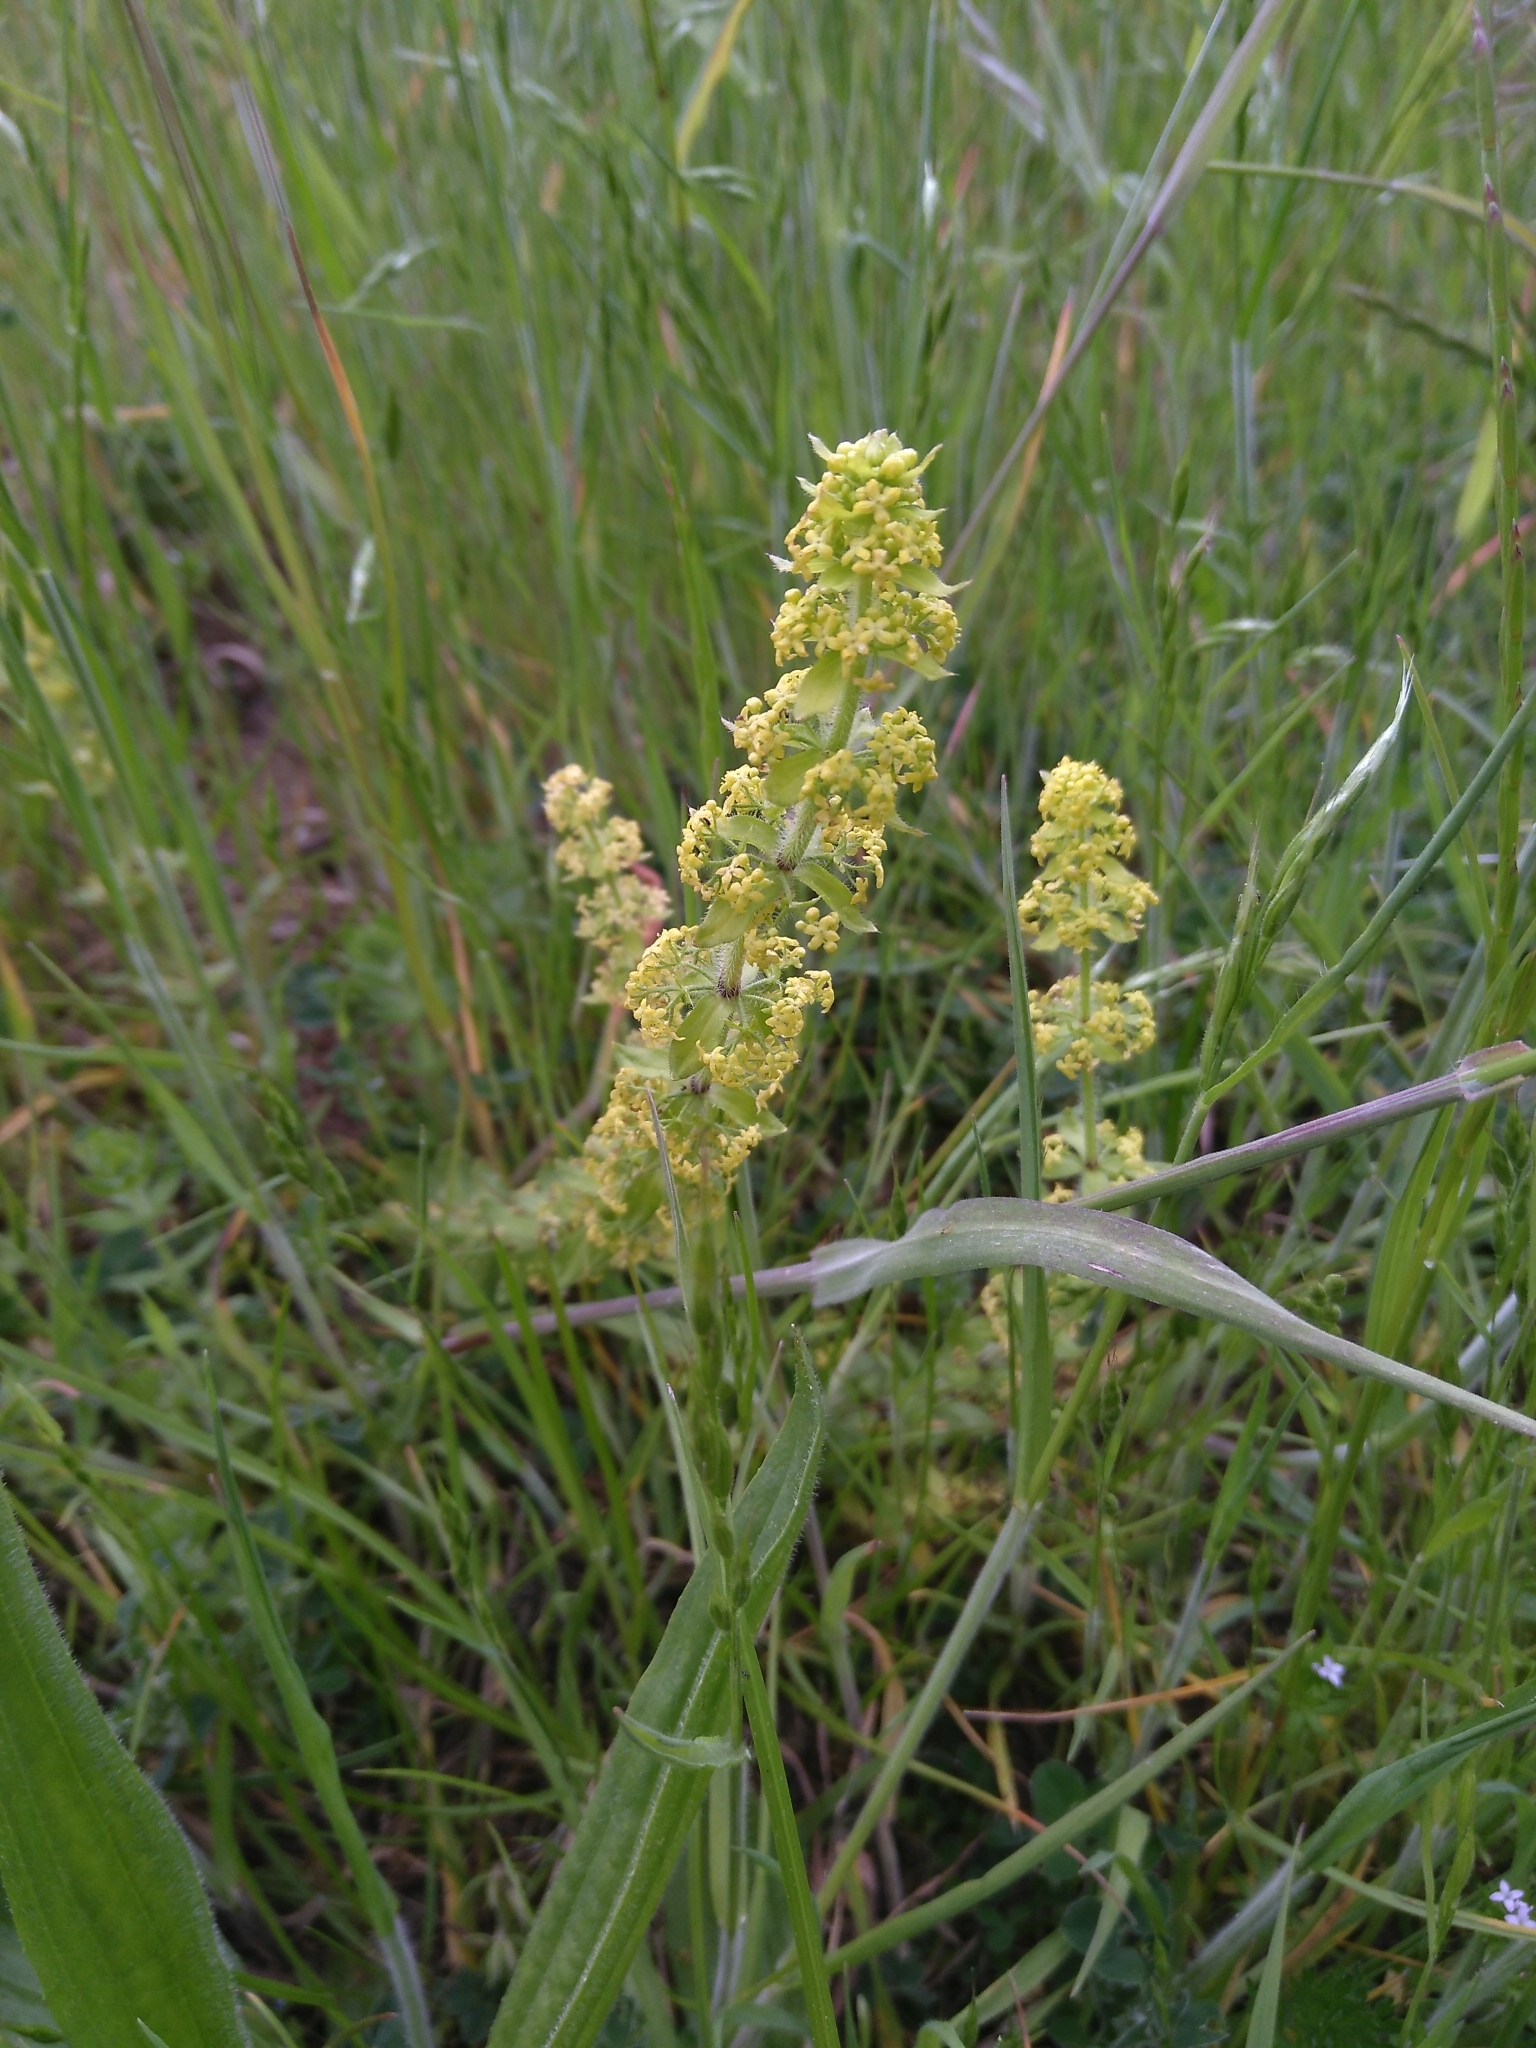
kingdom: Plantae
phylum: Tracheophyta
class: Magnoliopsida
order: Gentianales
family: Rubiaceae
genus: Cruciata
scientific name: Cruciata laevipes
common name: Crosswort
